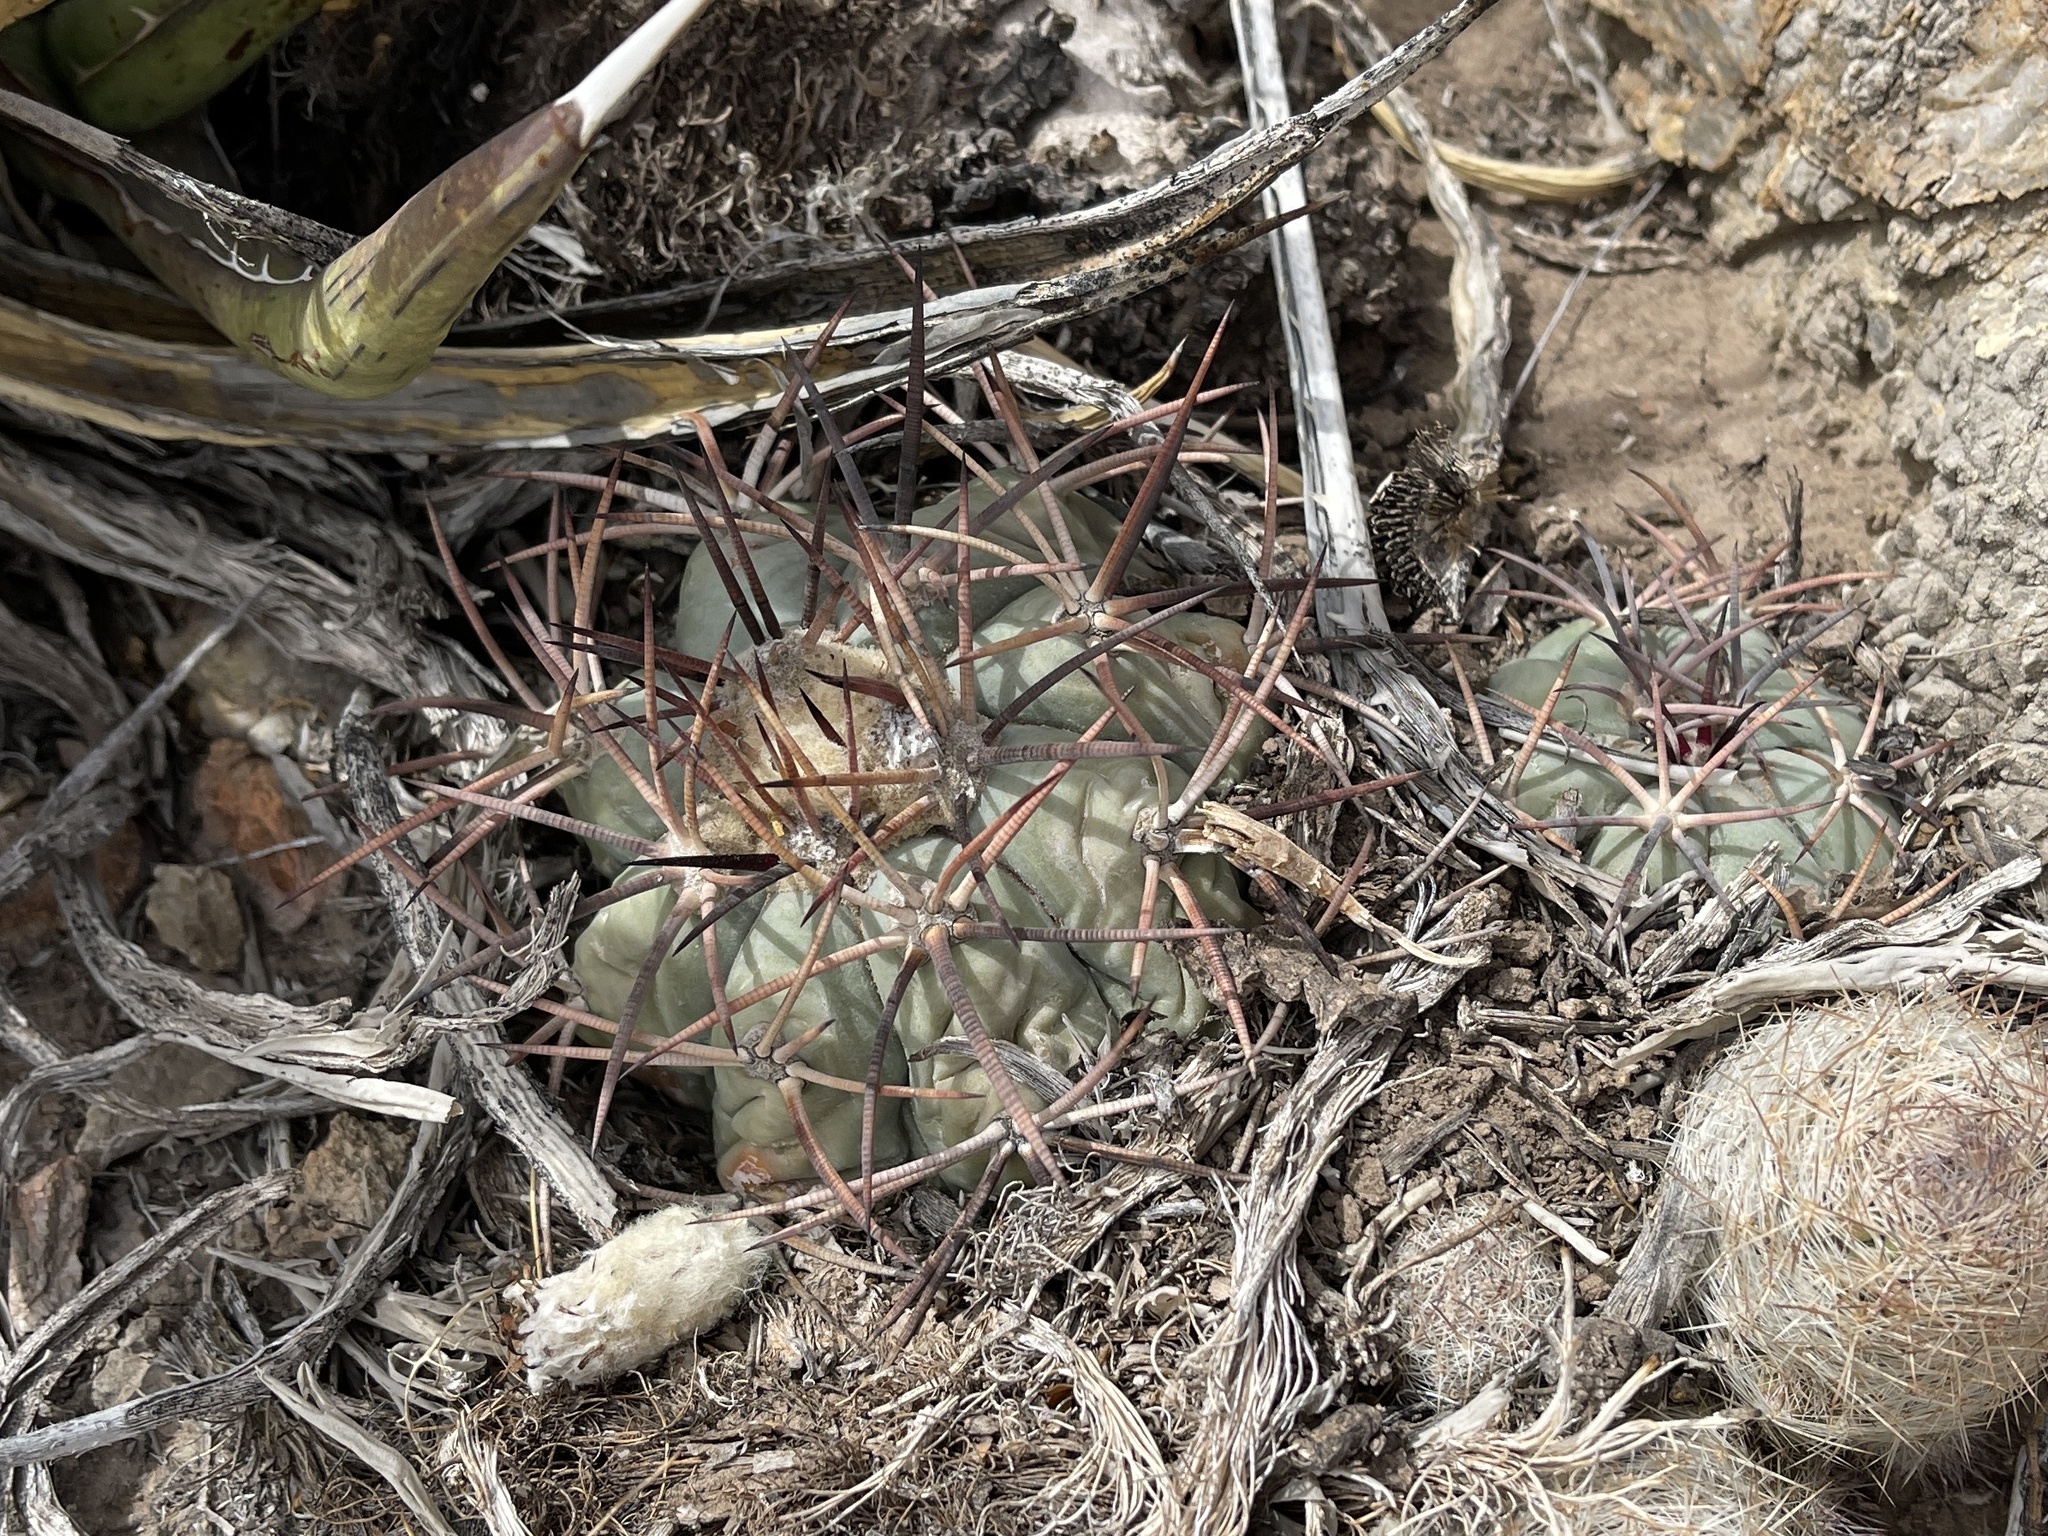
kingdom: Plantae
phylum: Tracheophyta
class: Magnoliopsida
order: Caryophyllales
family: Cactaceae
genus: Echinocactus
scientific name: Echinocactus horizonthalonius
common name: Devilshead
